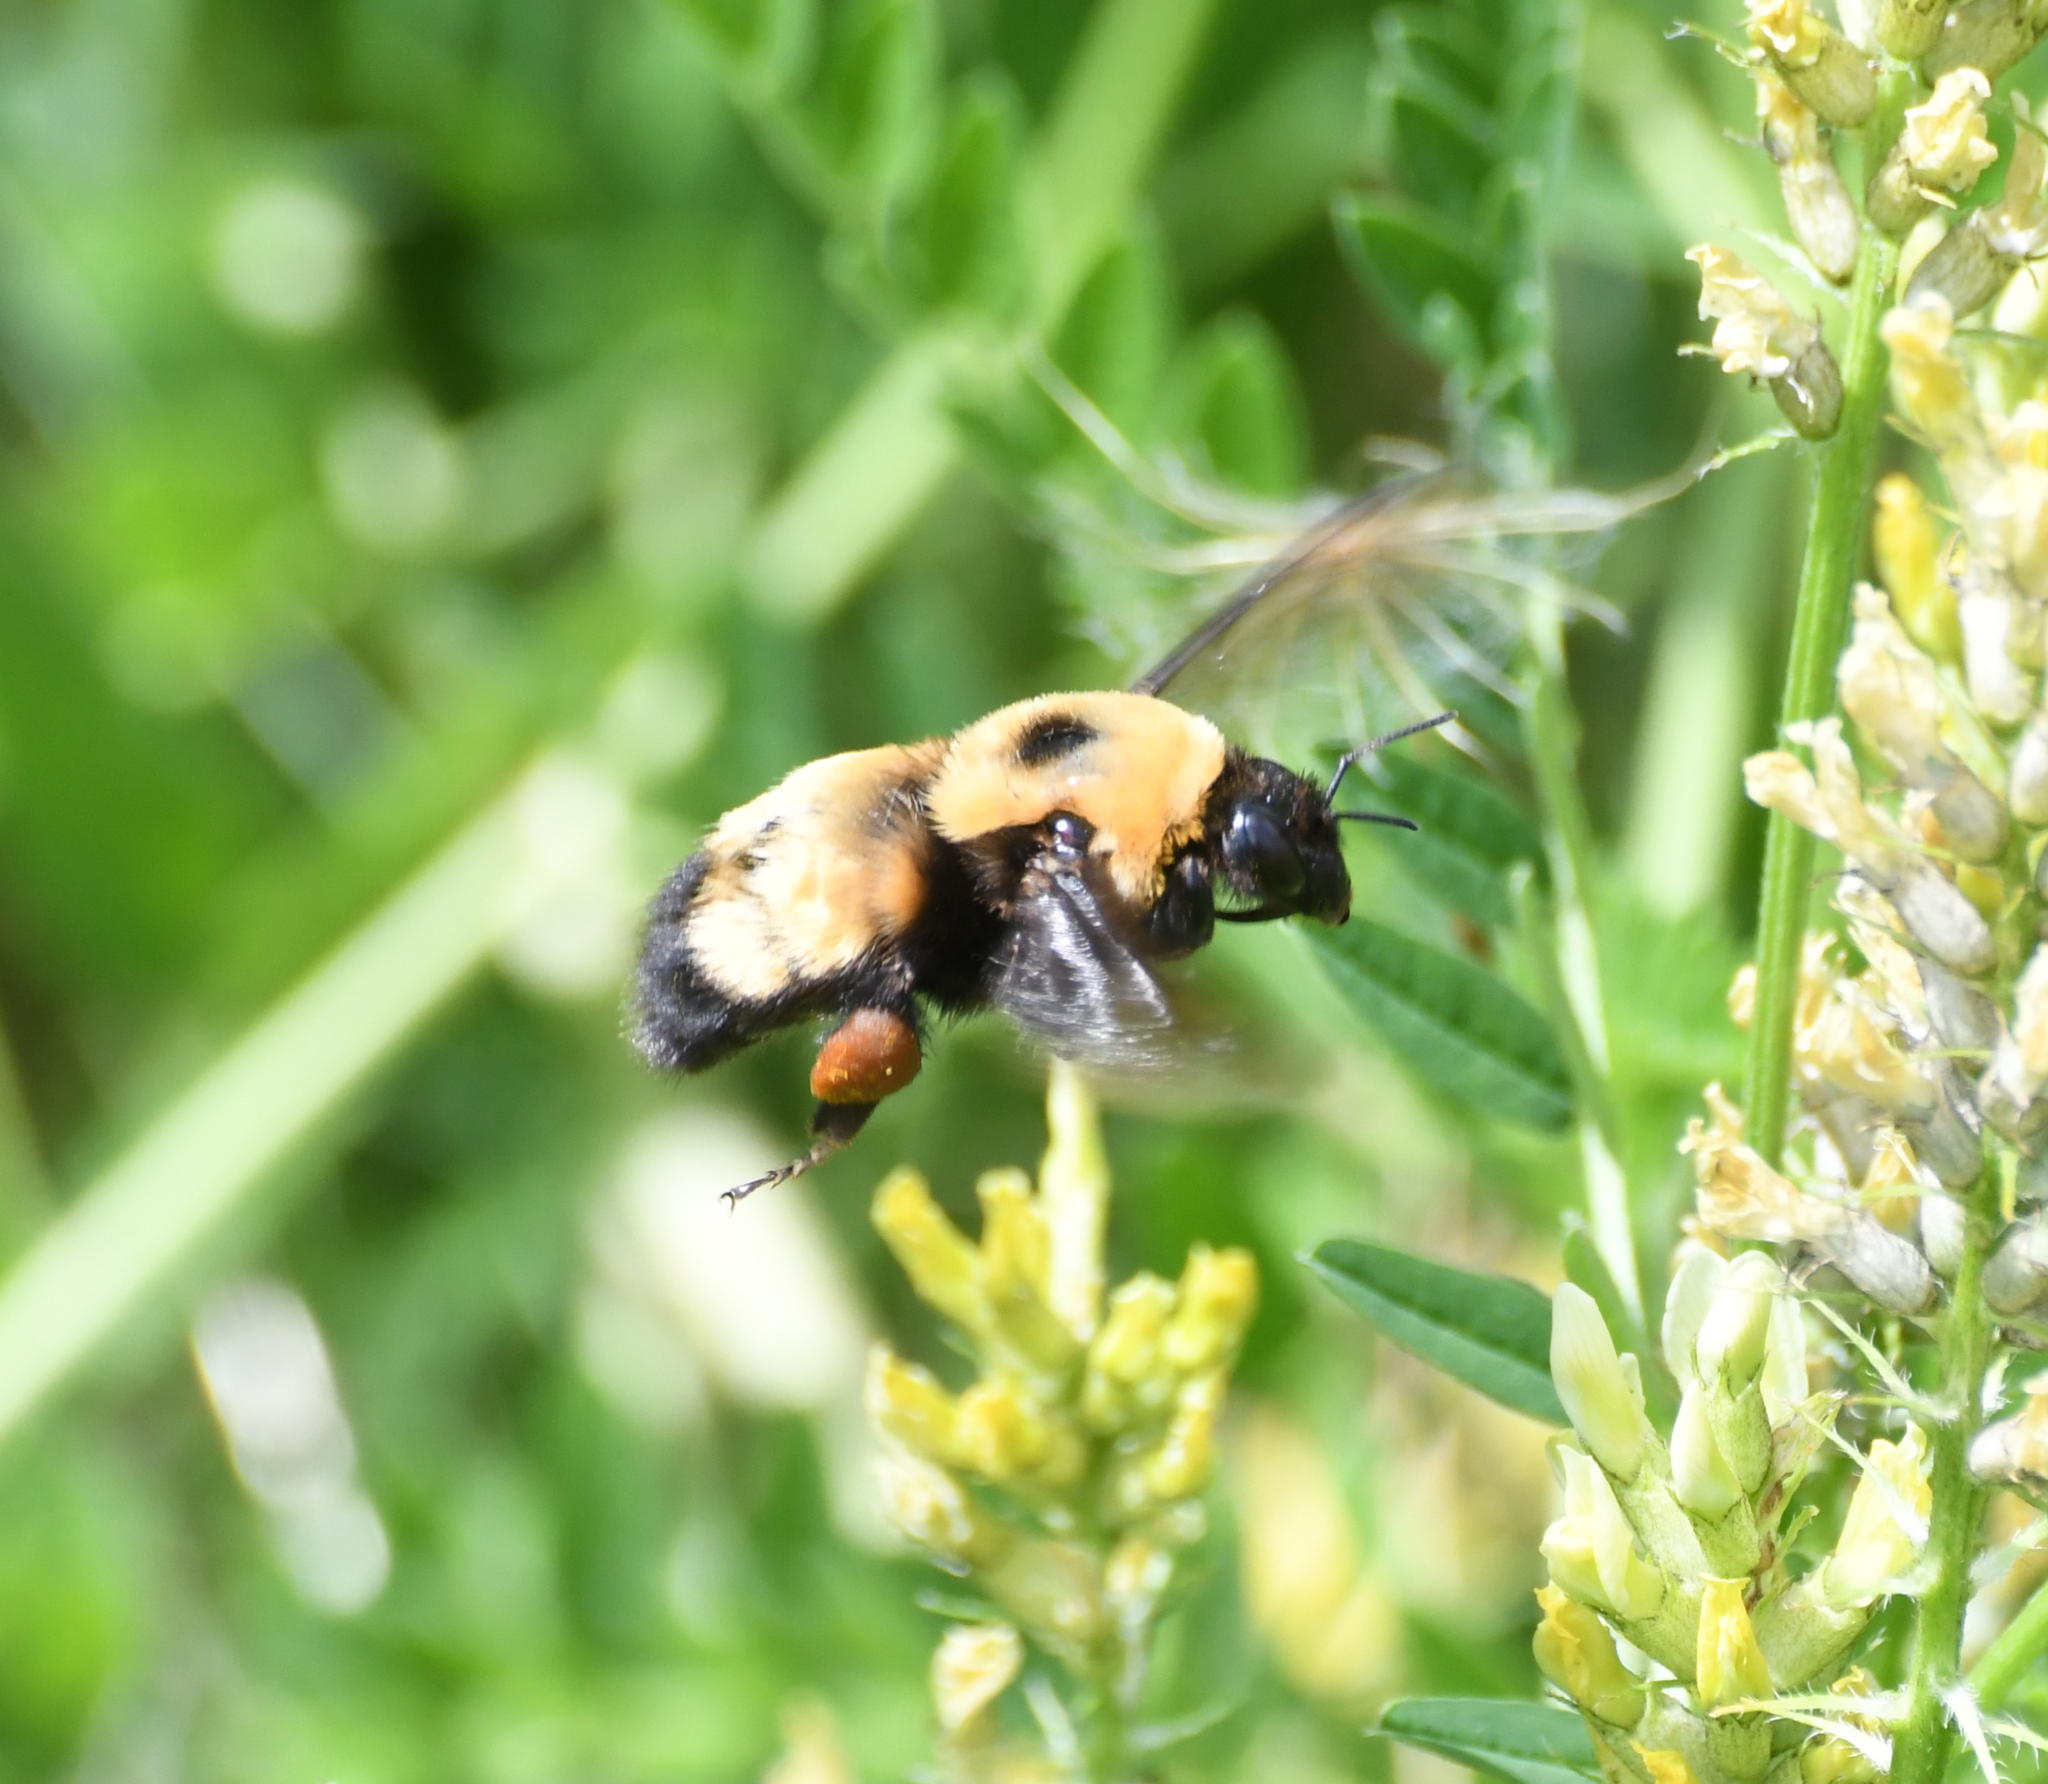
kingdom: Animalia
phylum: Arthropoda
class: Insecta
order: Hymenoptera
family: Apidae
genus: Bombus
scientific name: Bombus nevadensis
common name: Nevada bumble bee
